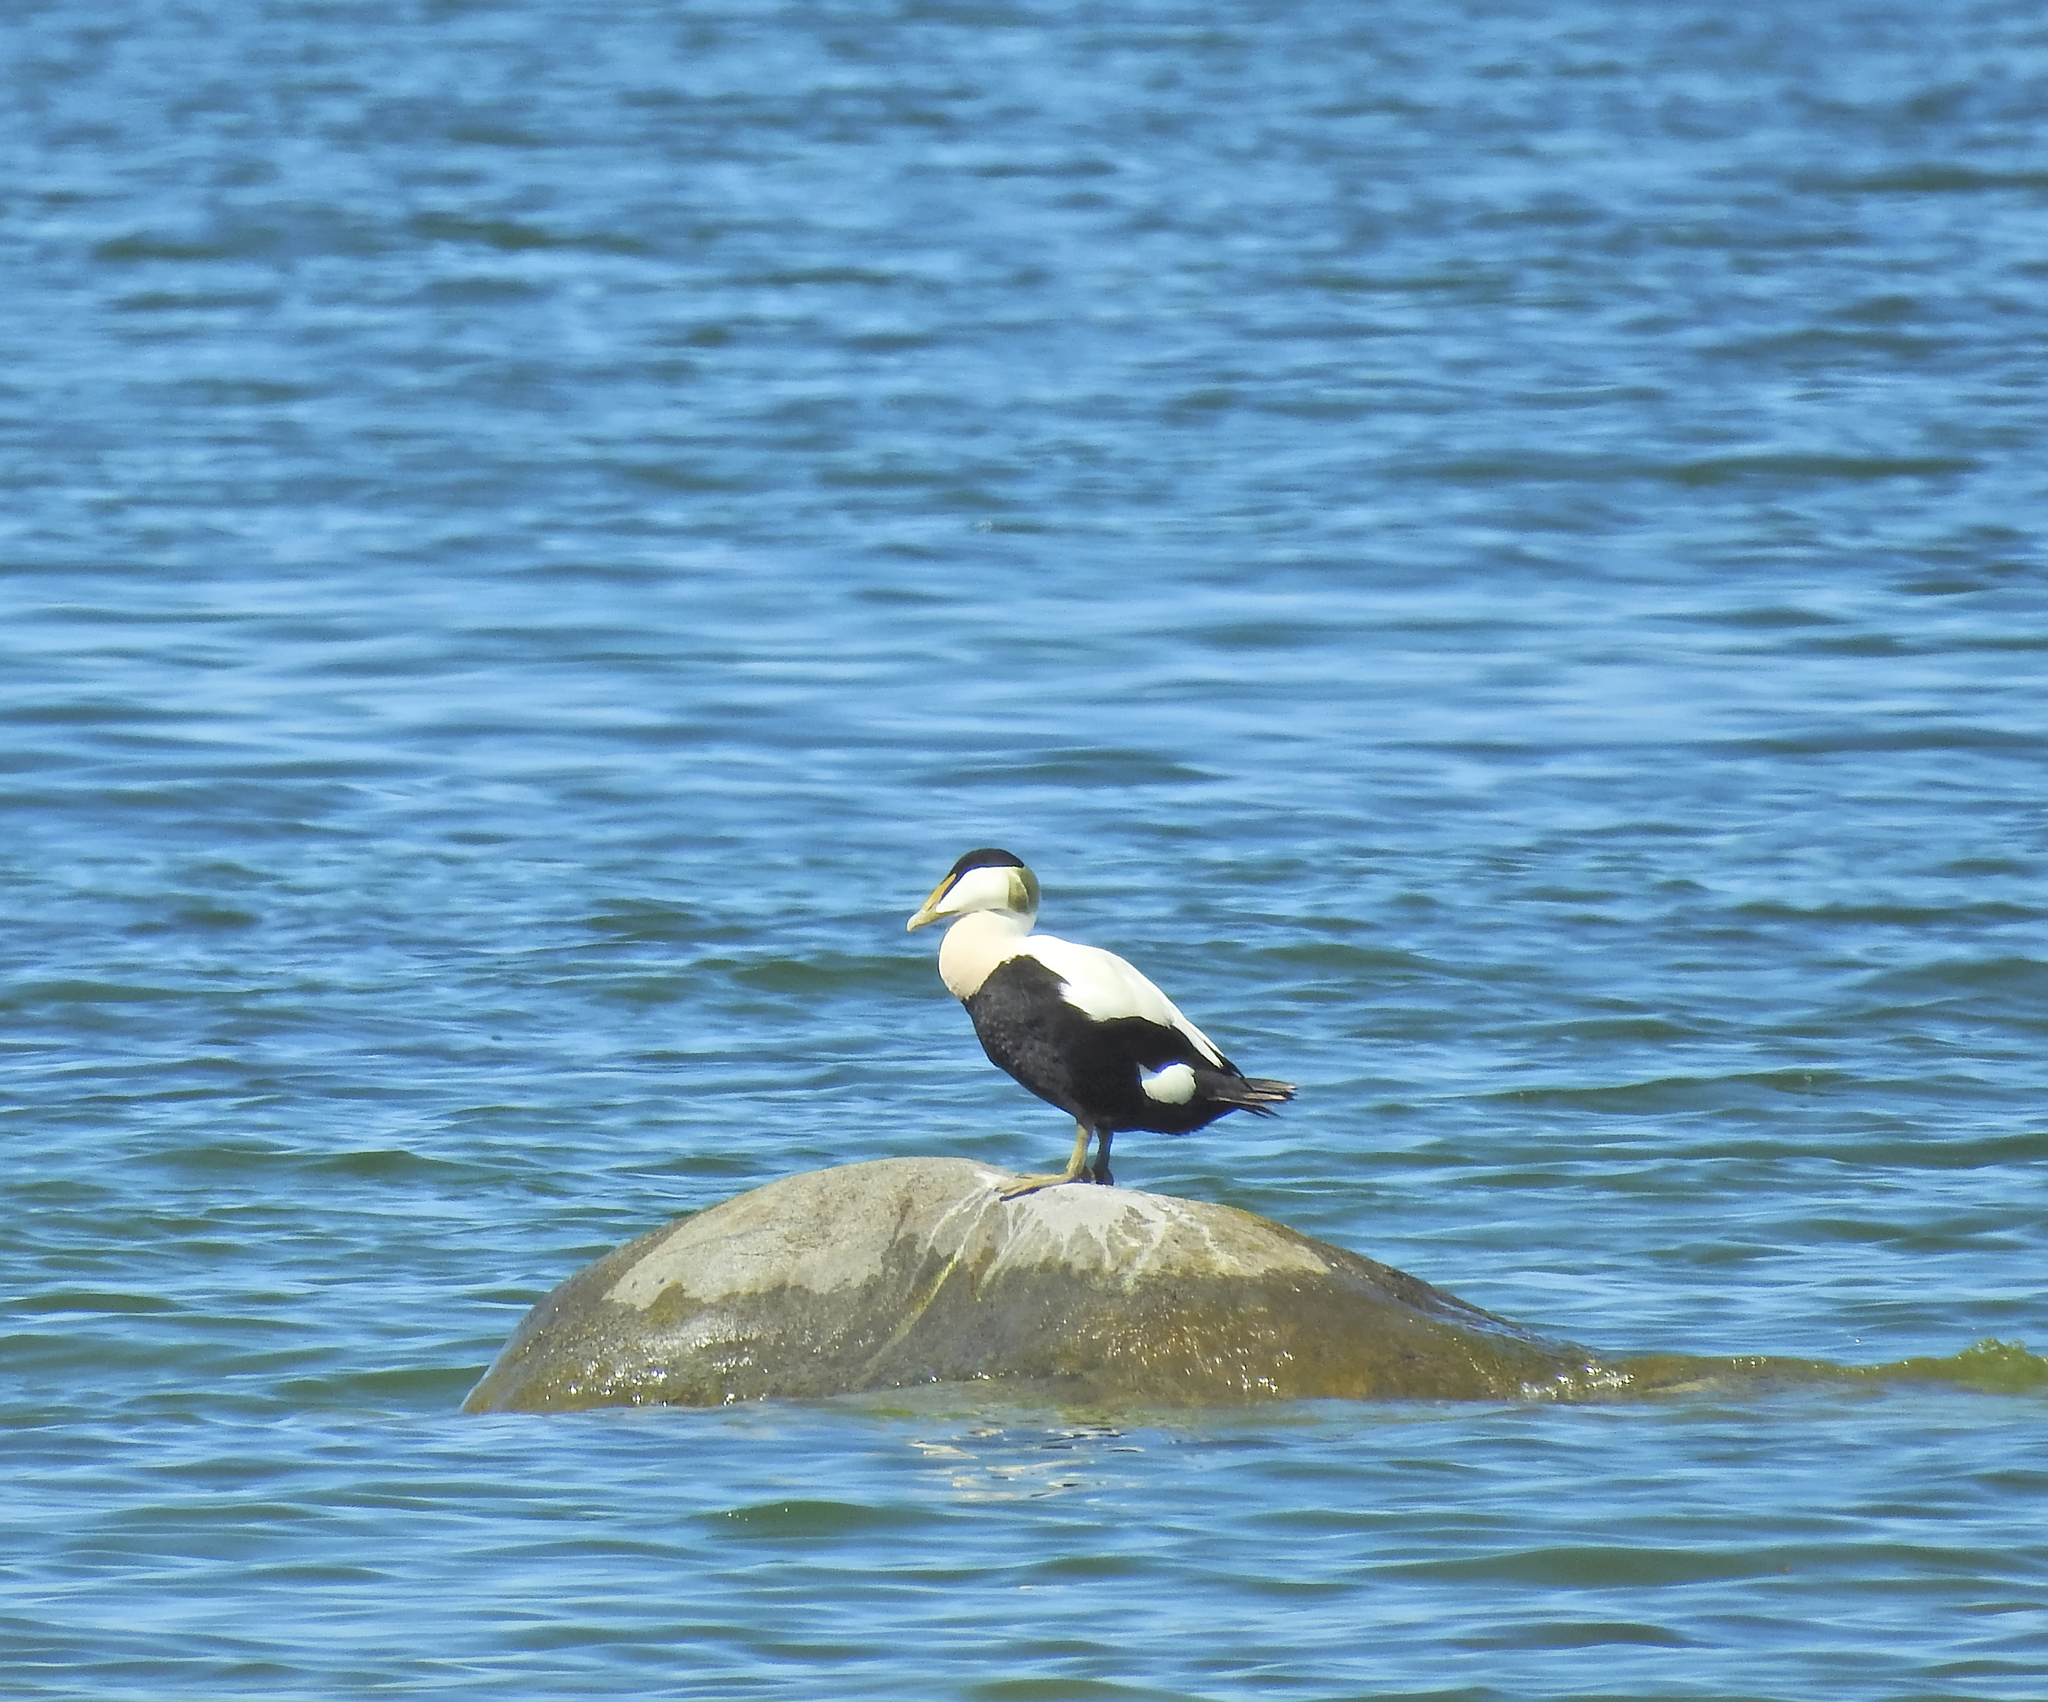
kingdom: Animalia
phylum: Chordata
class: Aves
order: Anseriformes
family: Anatidae
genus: Somateria
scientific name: Somateria mollissima
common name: Common eider
